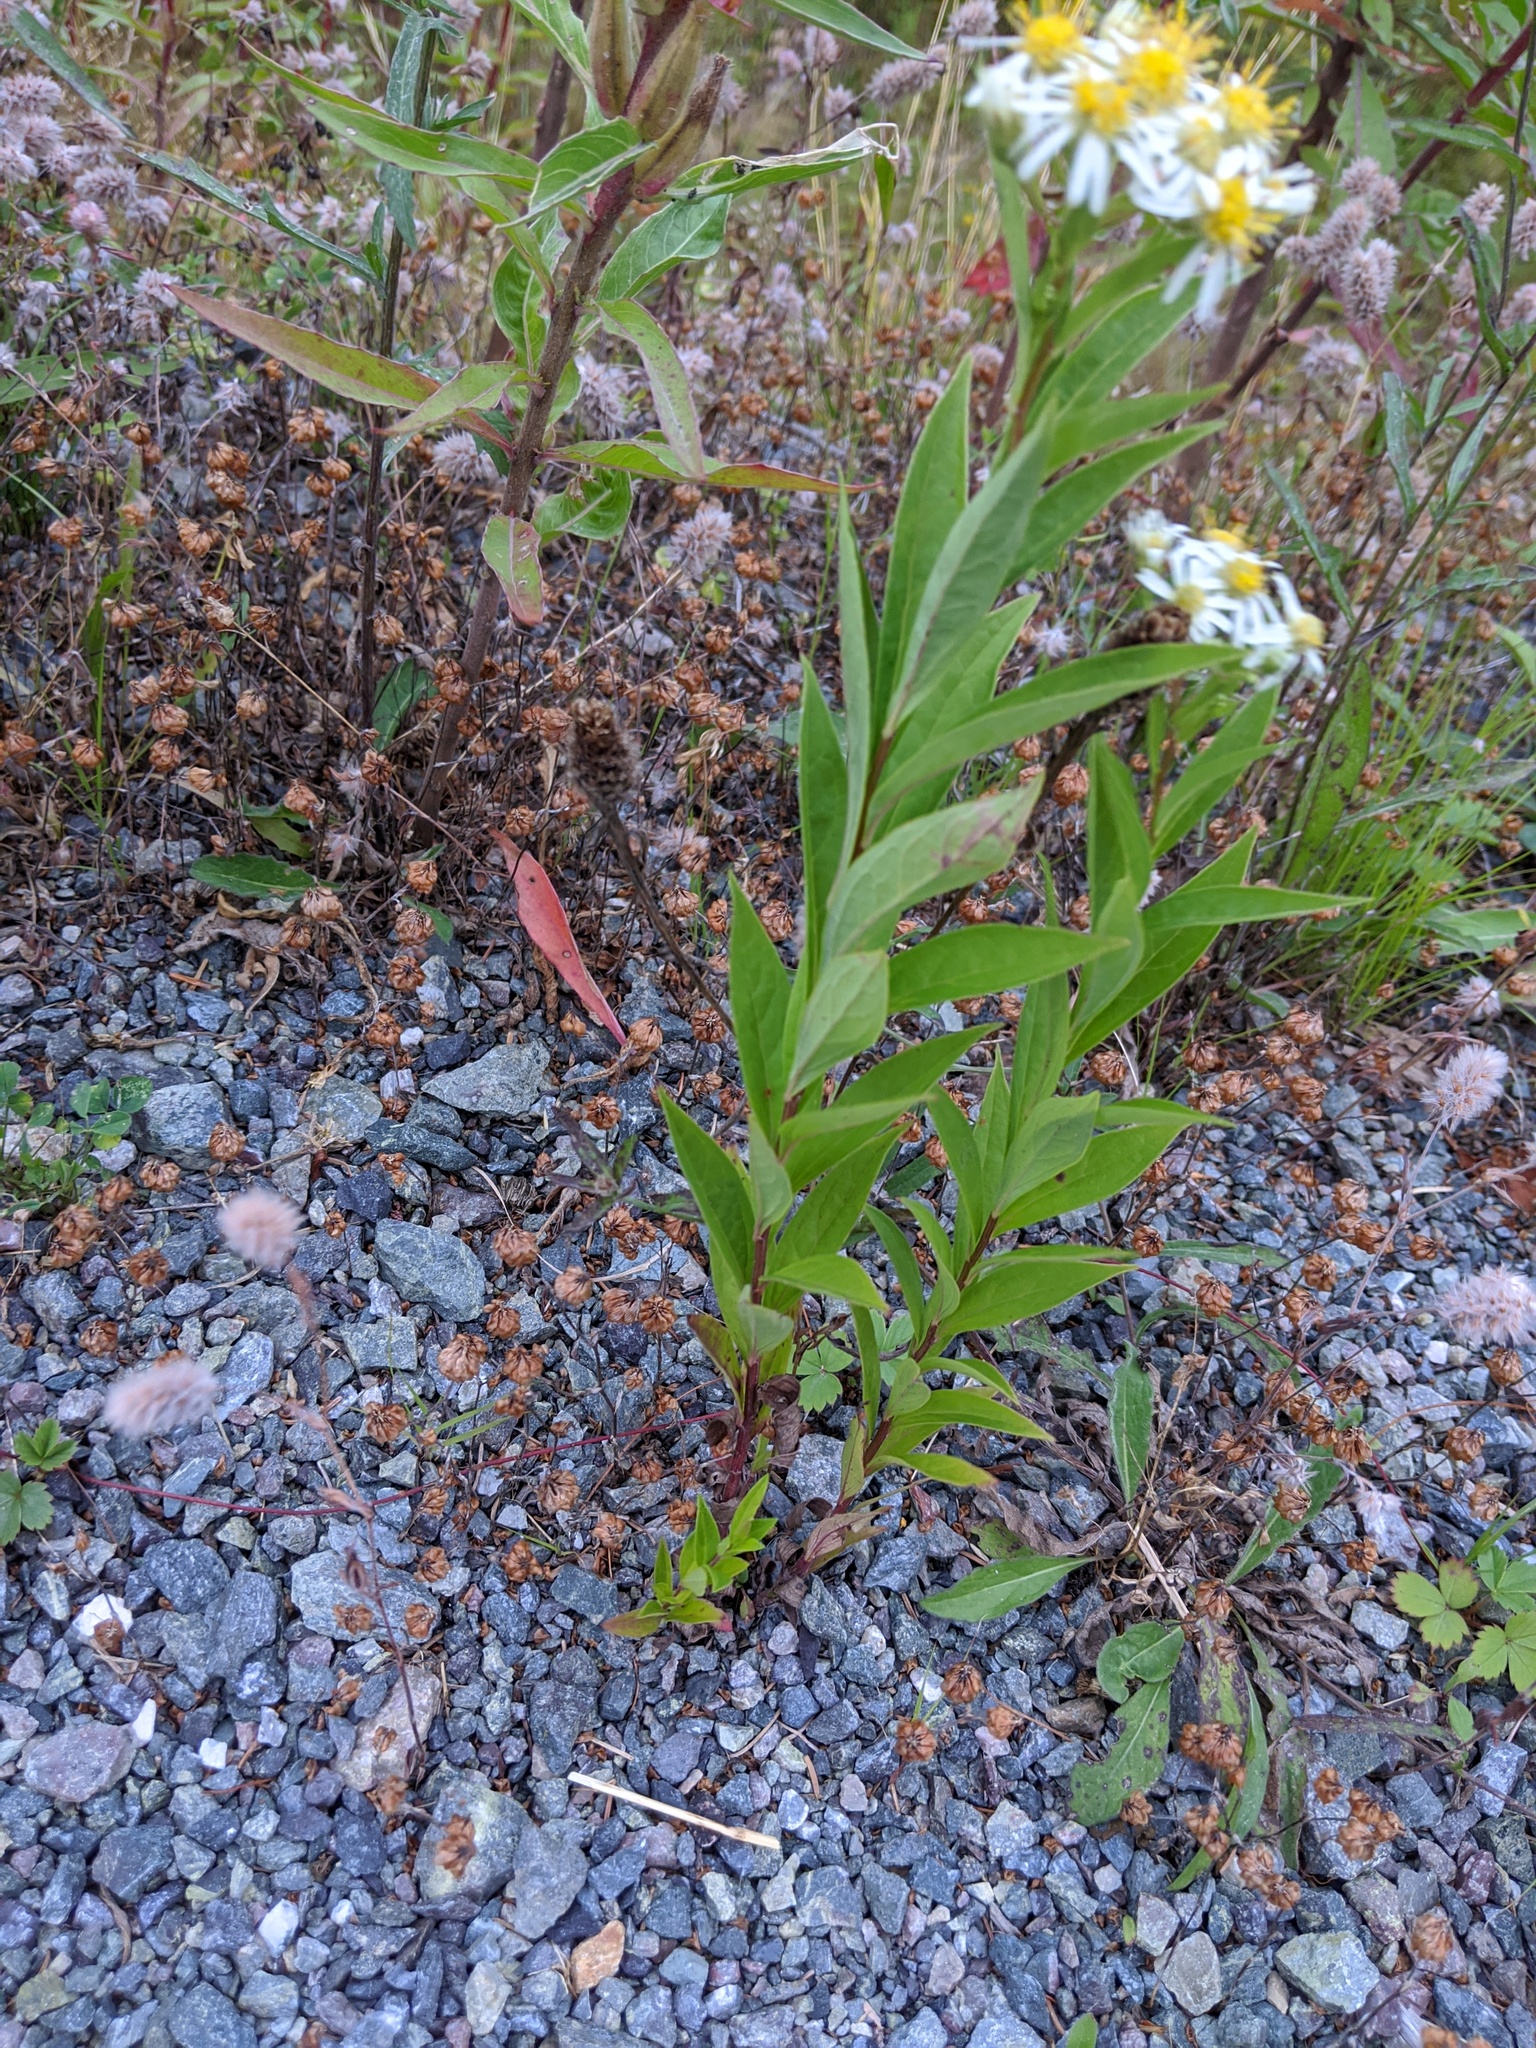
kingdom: Plantae
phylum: Tracheophyta
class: Magnoliopsida
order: Asterales
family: Asteraceae
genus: Doellingeria
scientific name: Doellingeria umbellata
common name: Flat-top white aster
